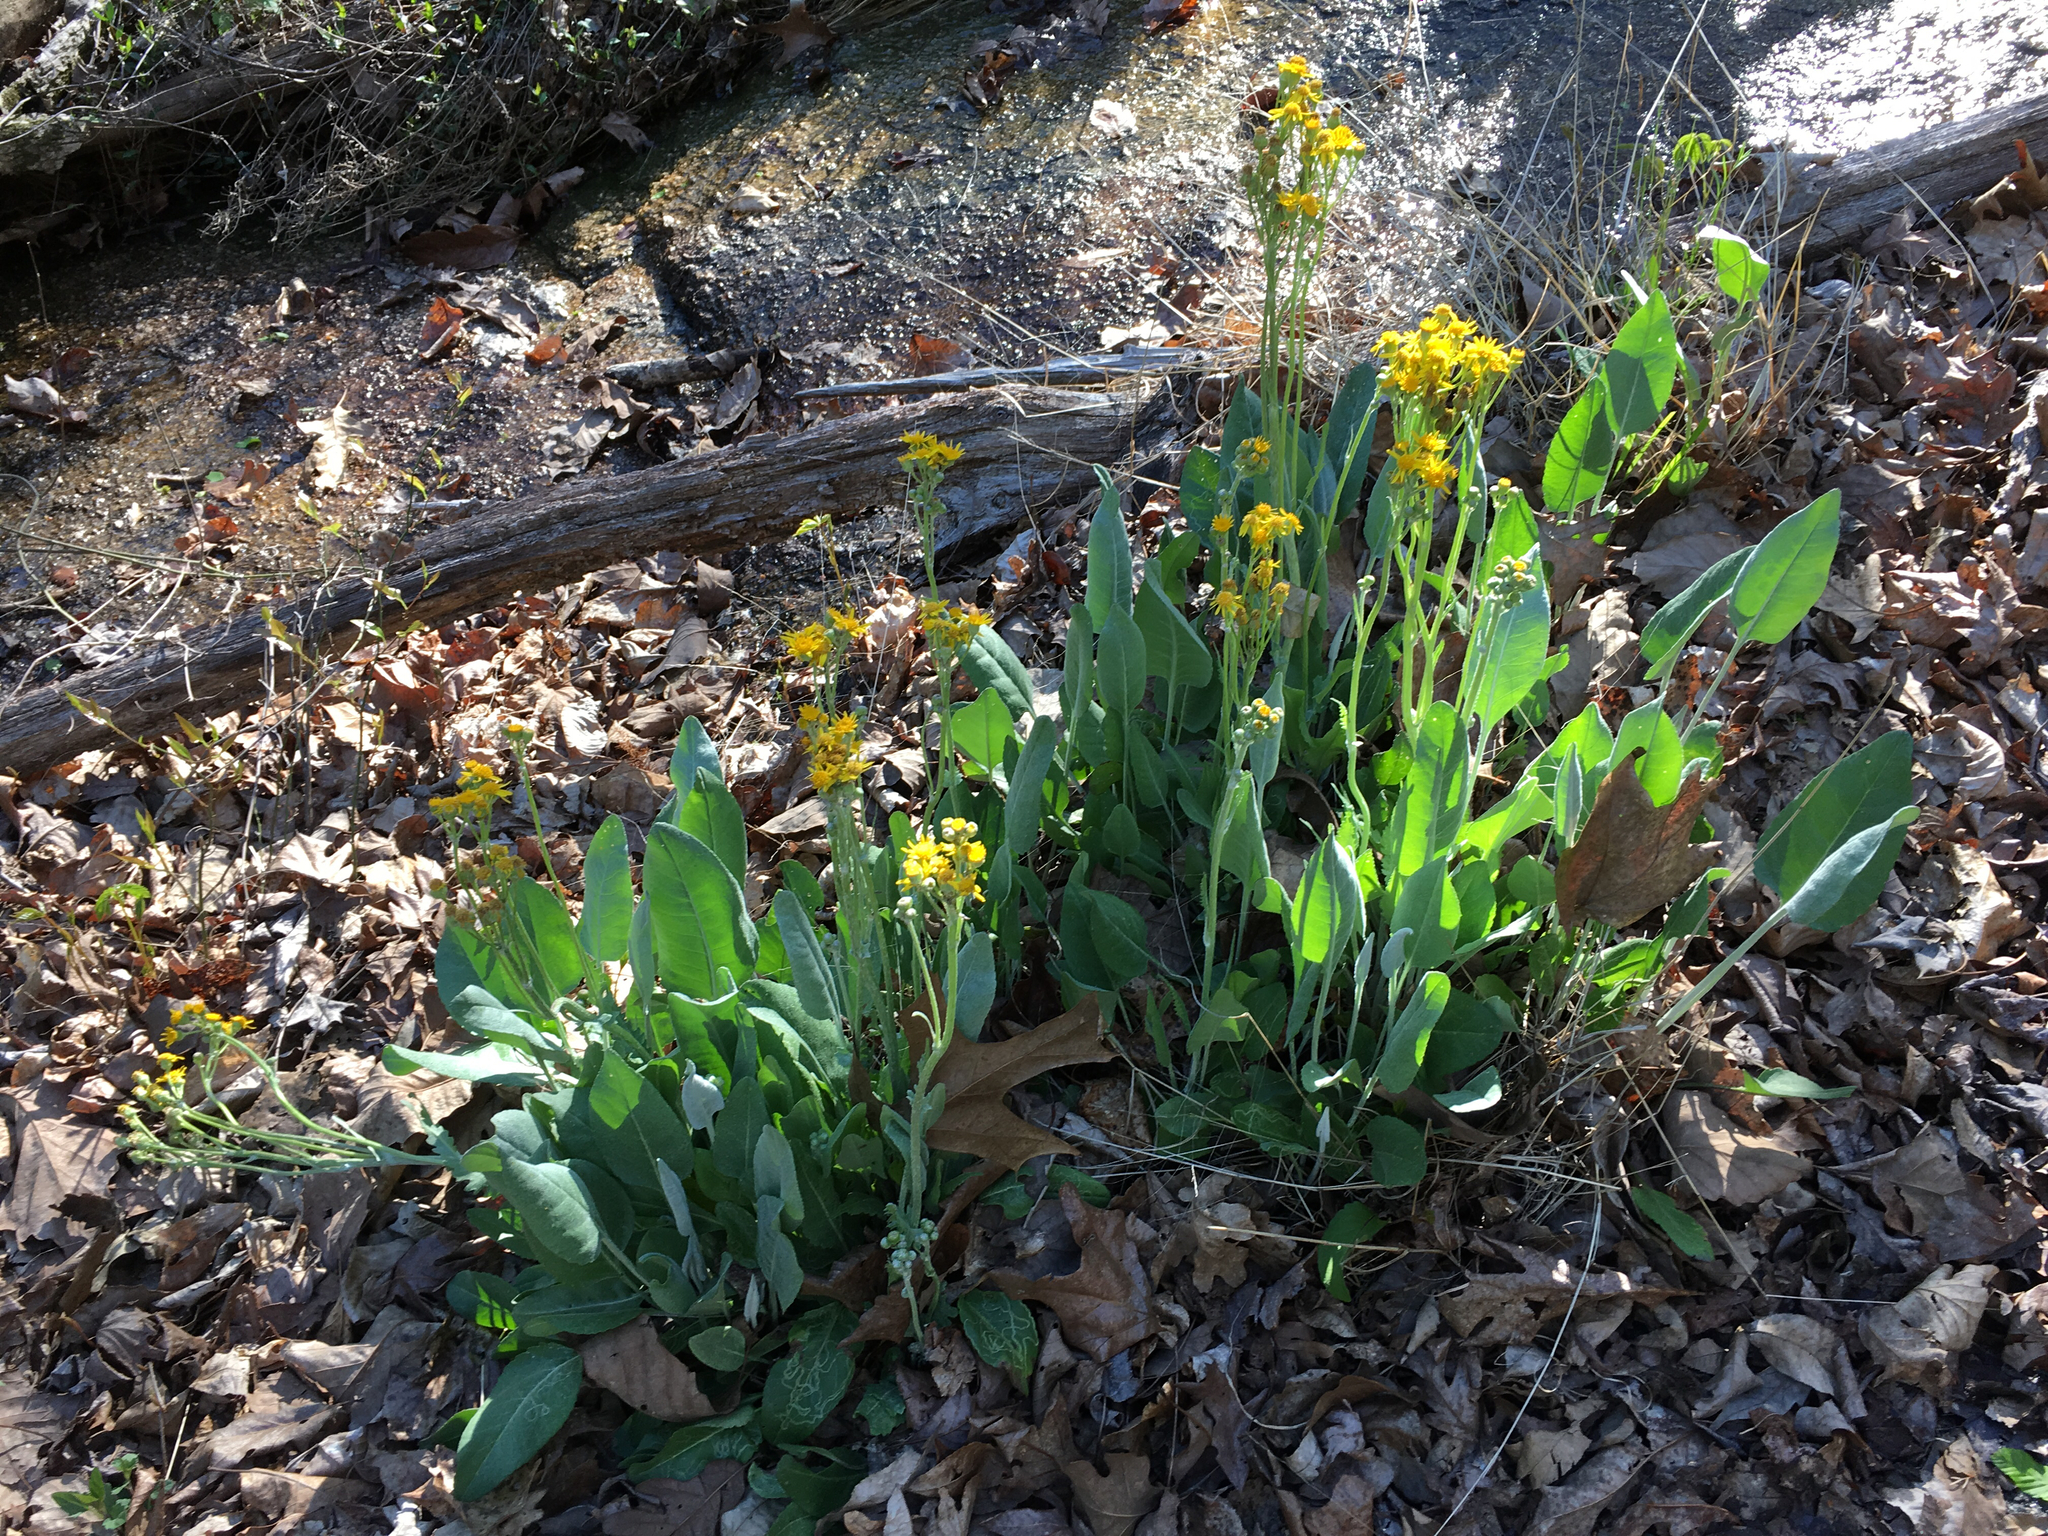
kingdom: Plantae
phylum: Tracheophyta
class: Magnoliopsida
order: Asterales
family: Asteraceae
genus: Packera
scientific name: Packera dubia
